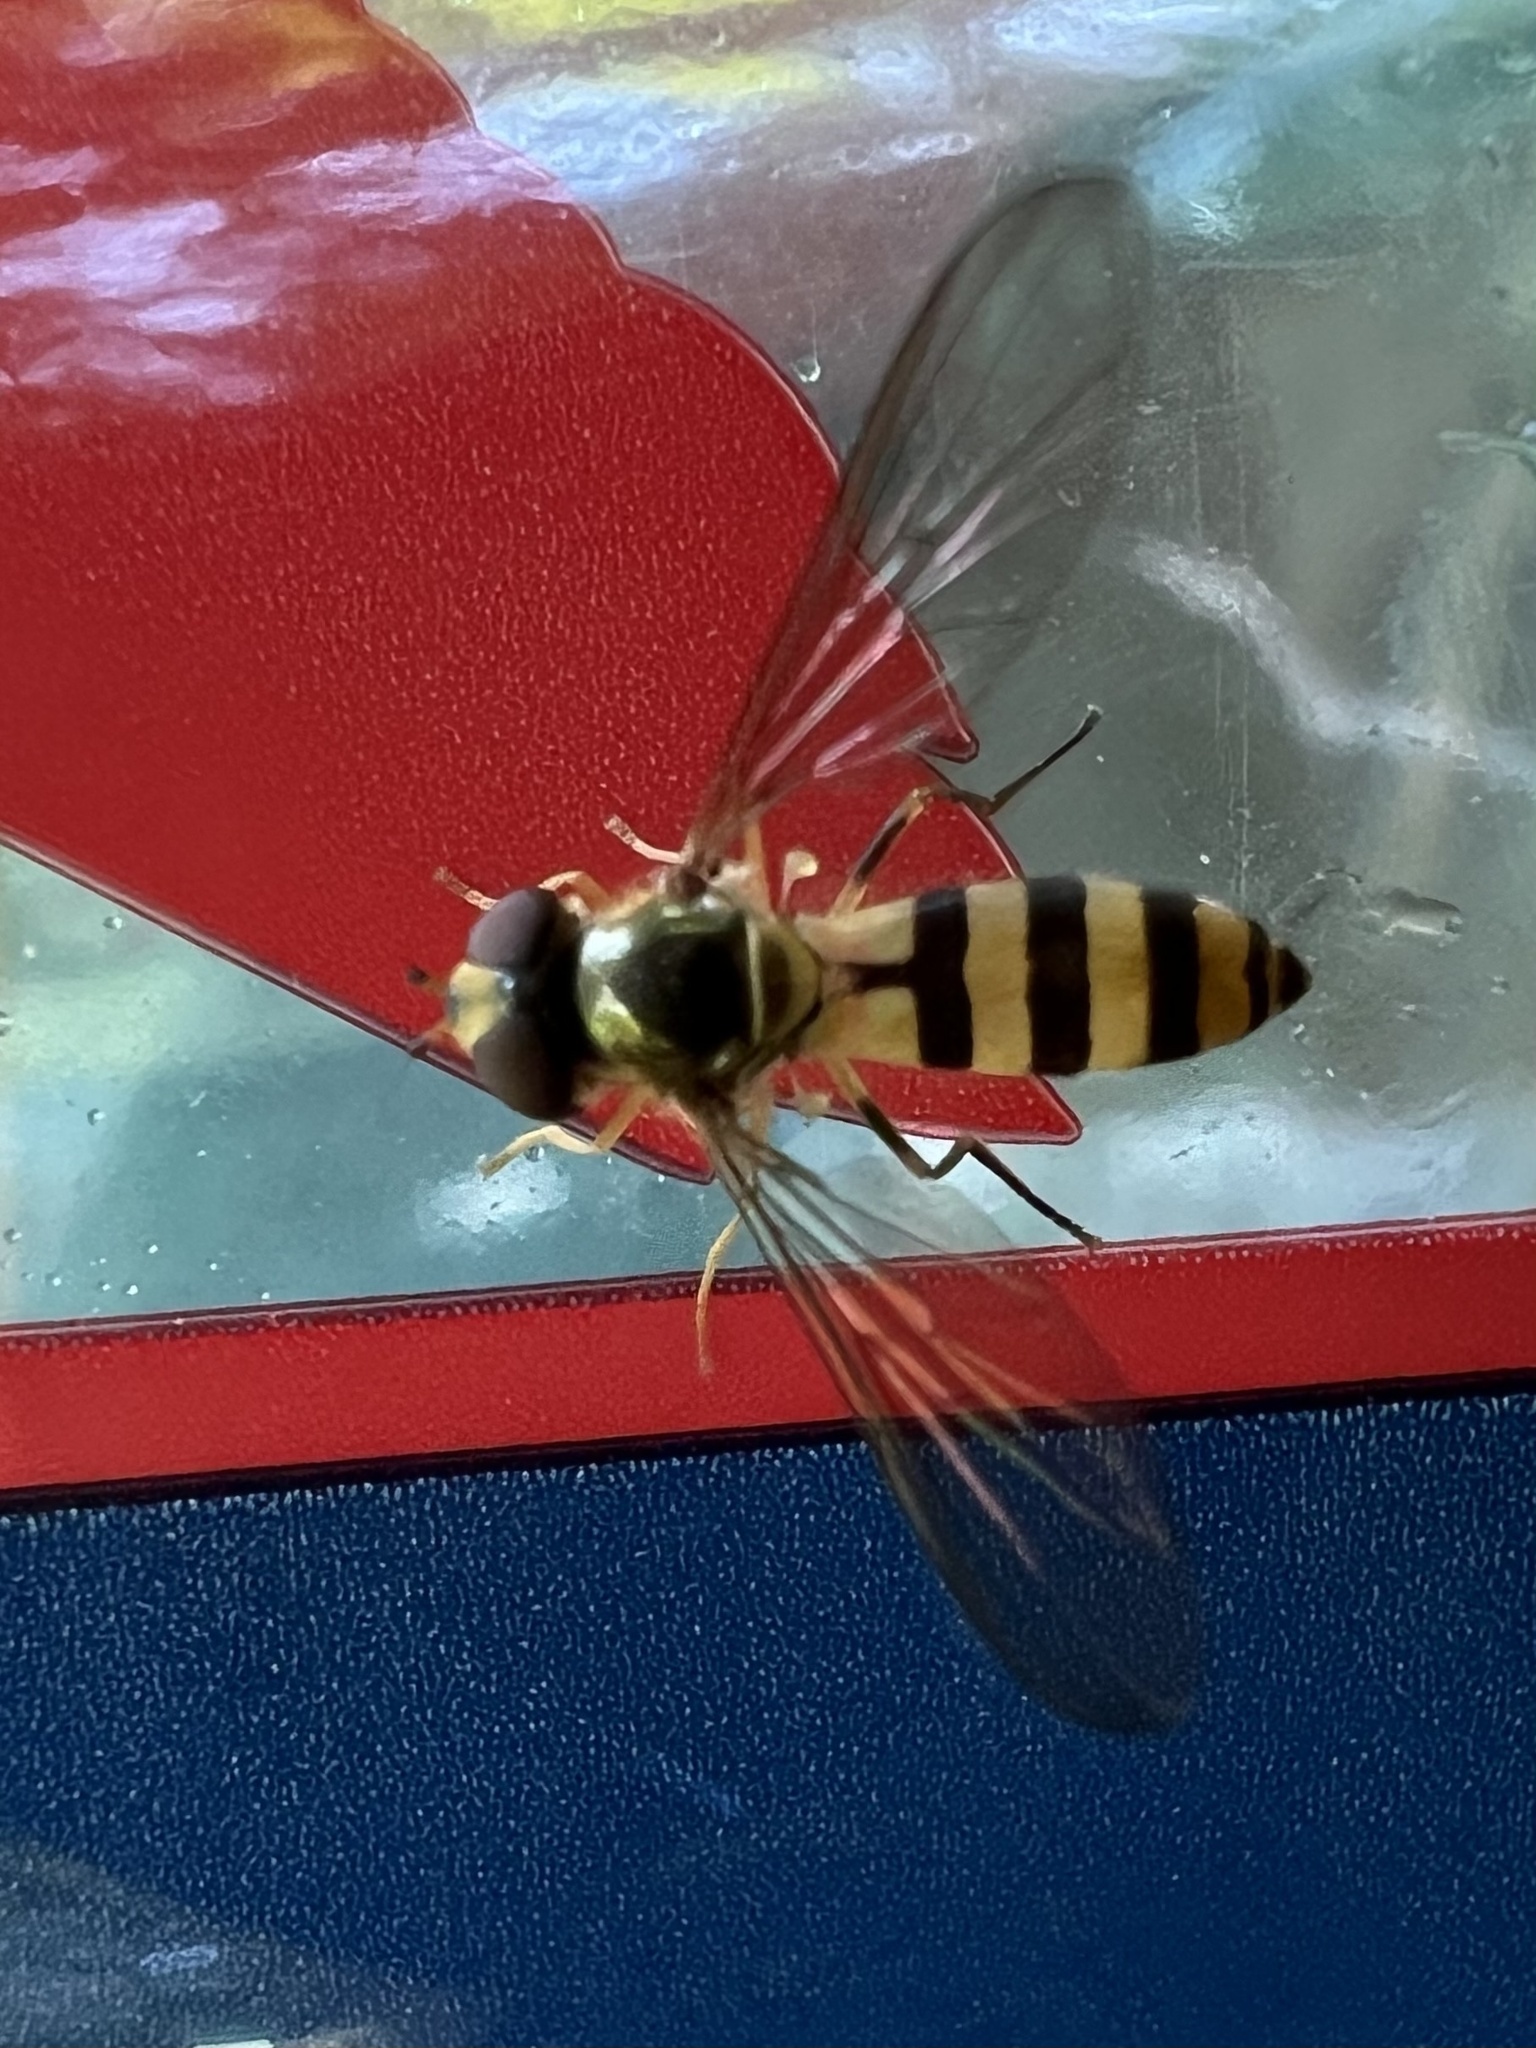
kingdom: Animalia
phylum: Arthropoda
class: Insecta
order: Diptera
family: Syrphidae
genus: Meliscaeva
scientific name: Meliscaeva cinctella
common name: American thintail fly
